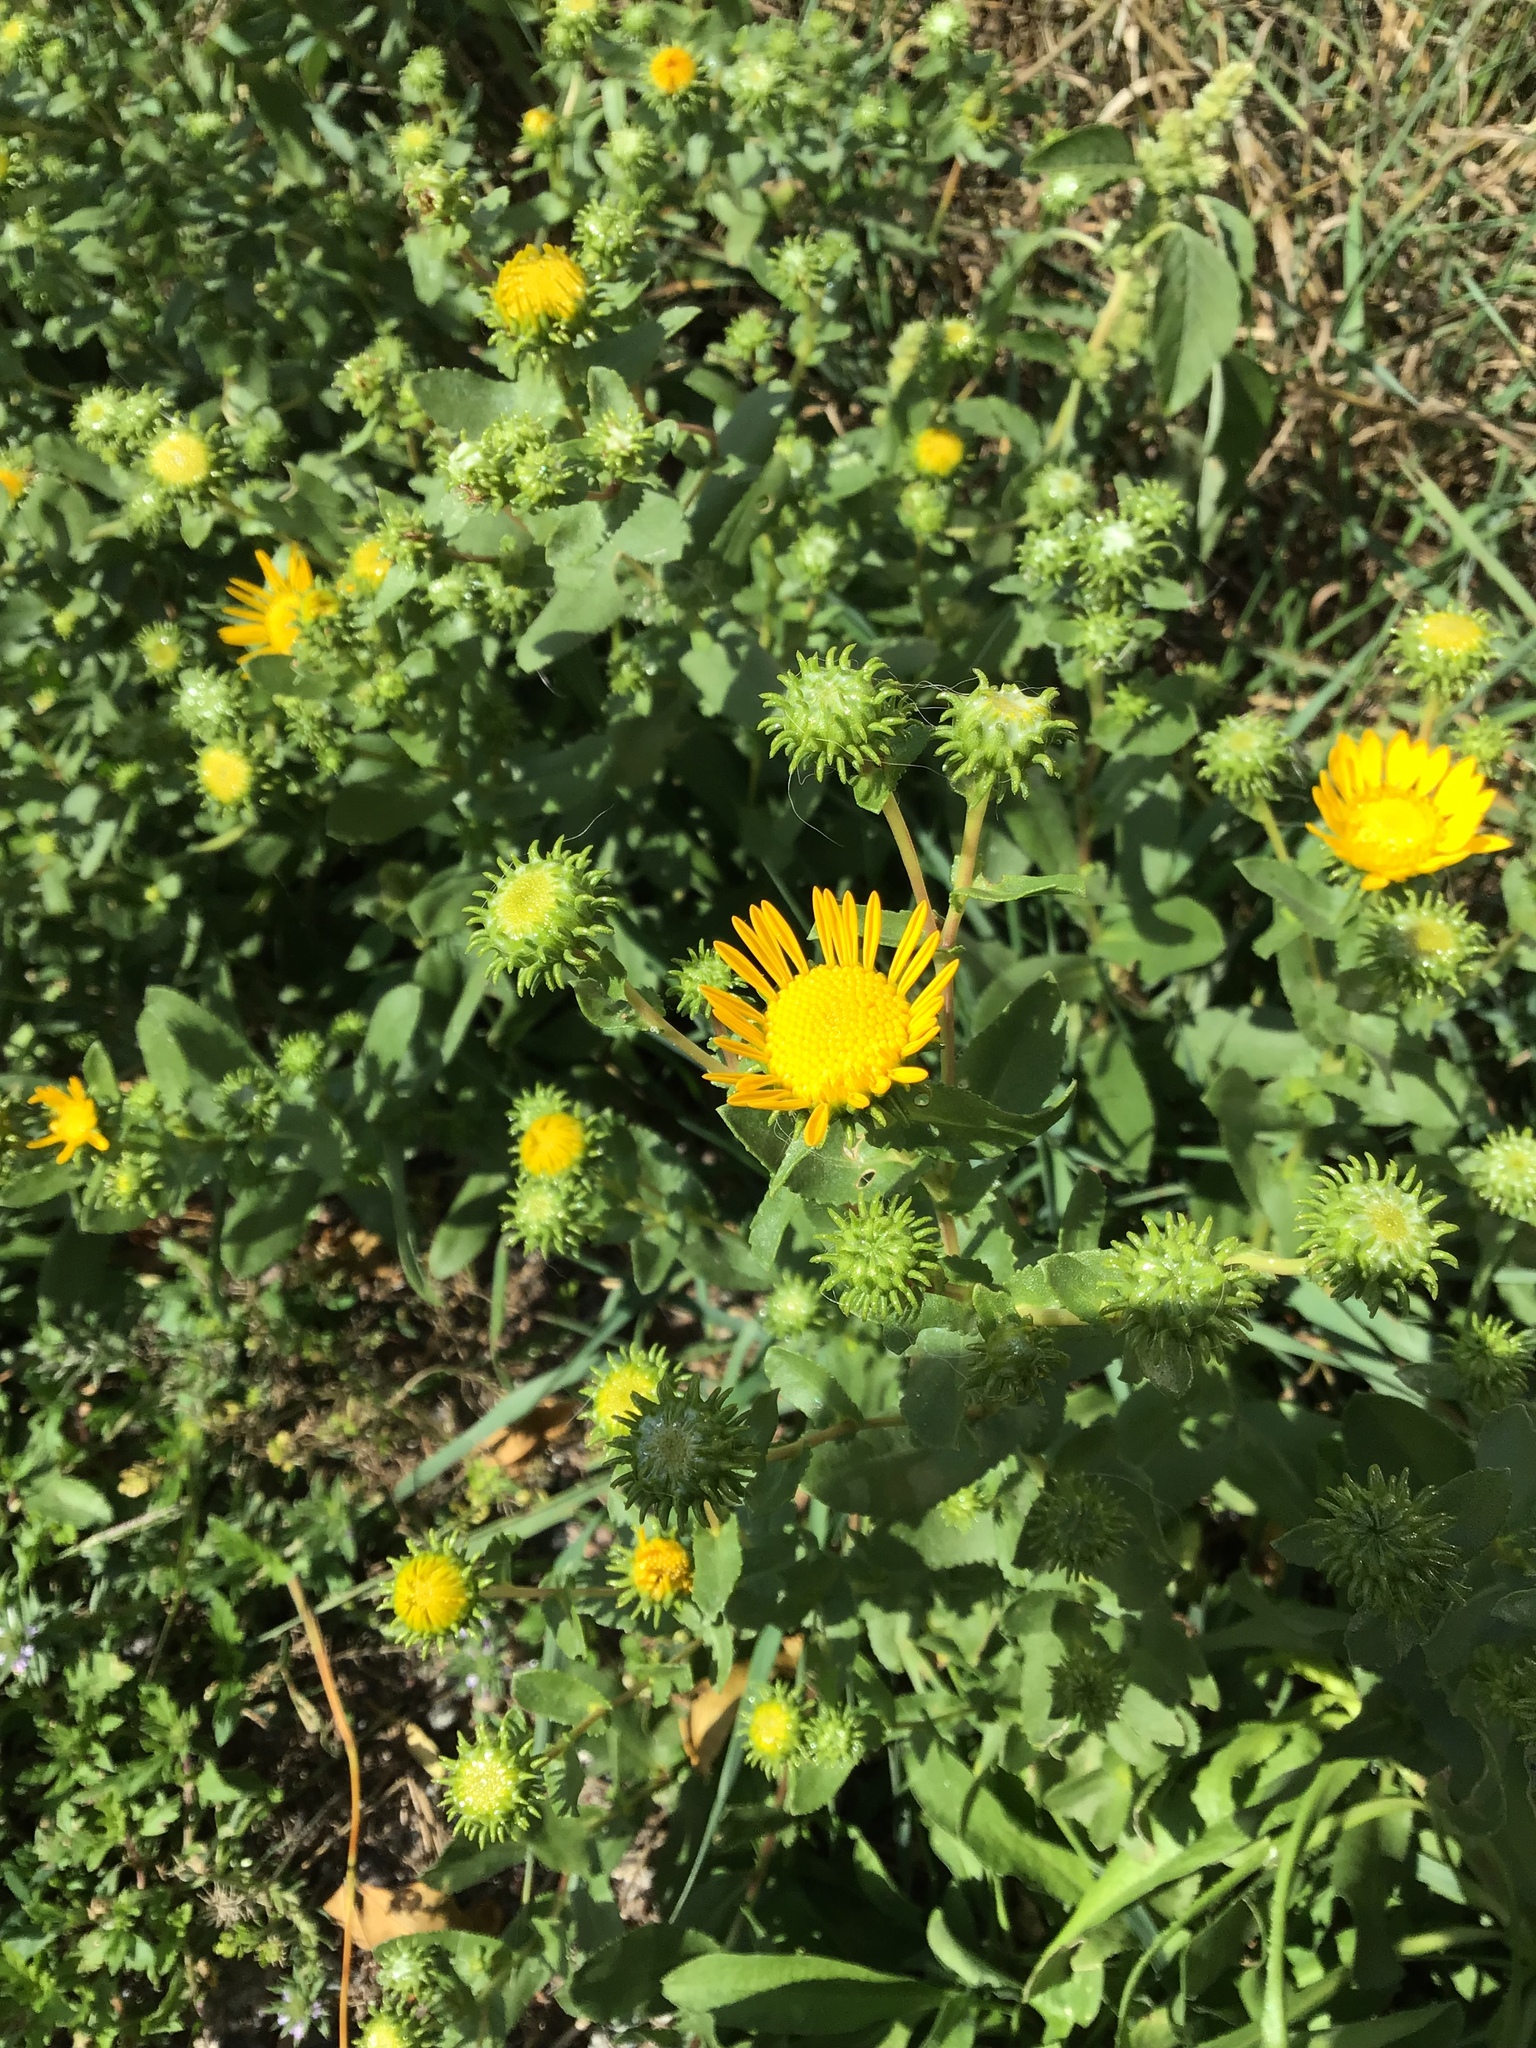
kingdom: Plantae
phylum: Tracheophyta
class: Magnoliopsida
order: Asterales
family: Asteraceae
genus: Grindelia
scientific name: Grindelia squarrosa
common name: Curly-cup gumweed
